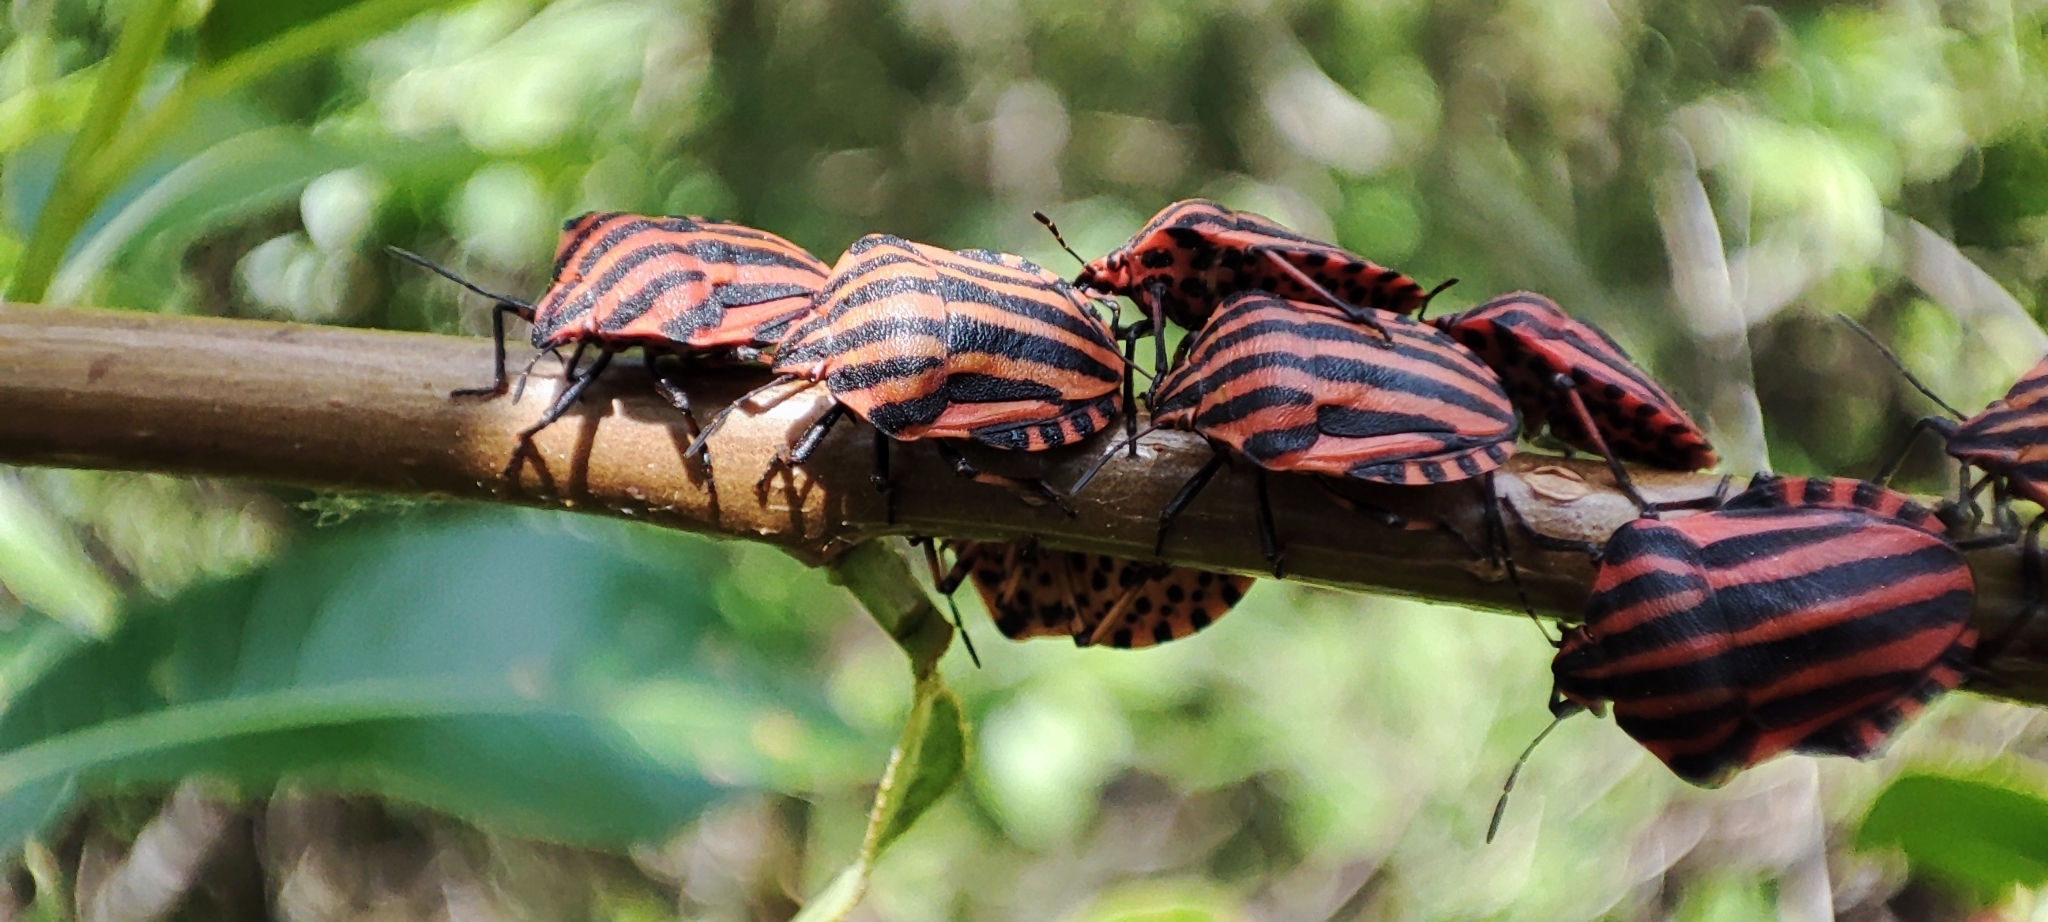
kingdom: Animalia
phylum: Arthropoda
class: Insecta
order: Hemiptera
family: Pentatomidae
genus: Graphosoma
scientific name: Graphosoma italicum
